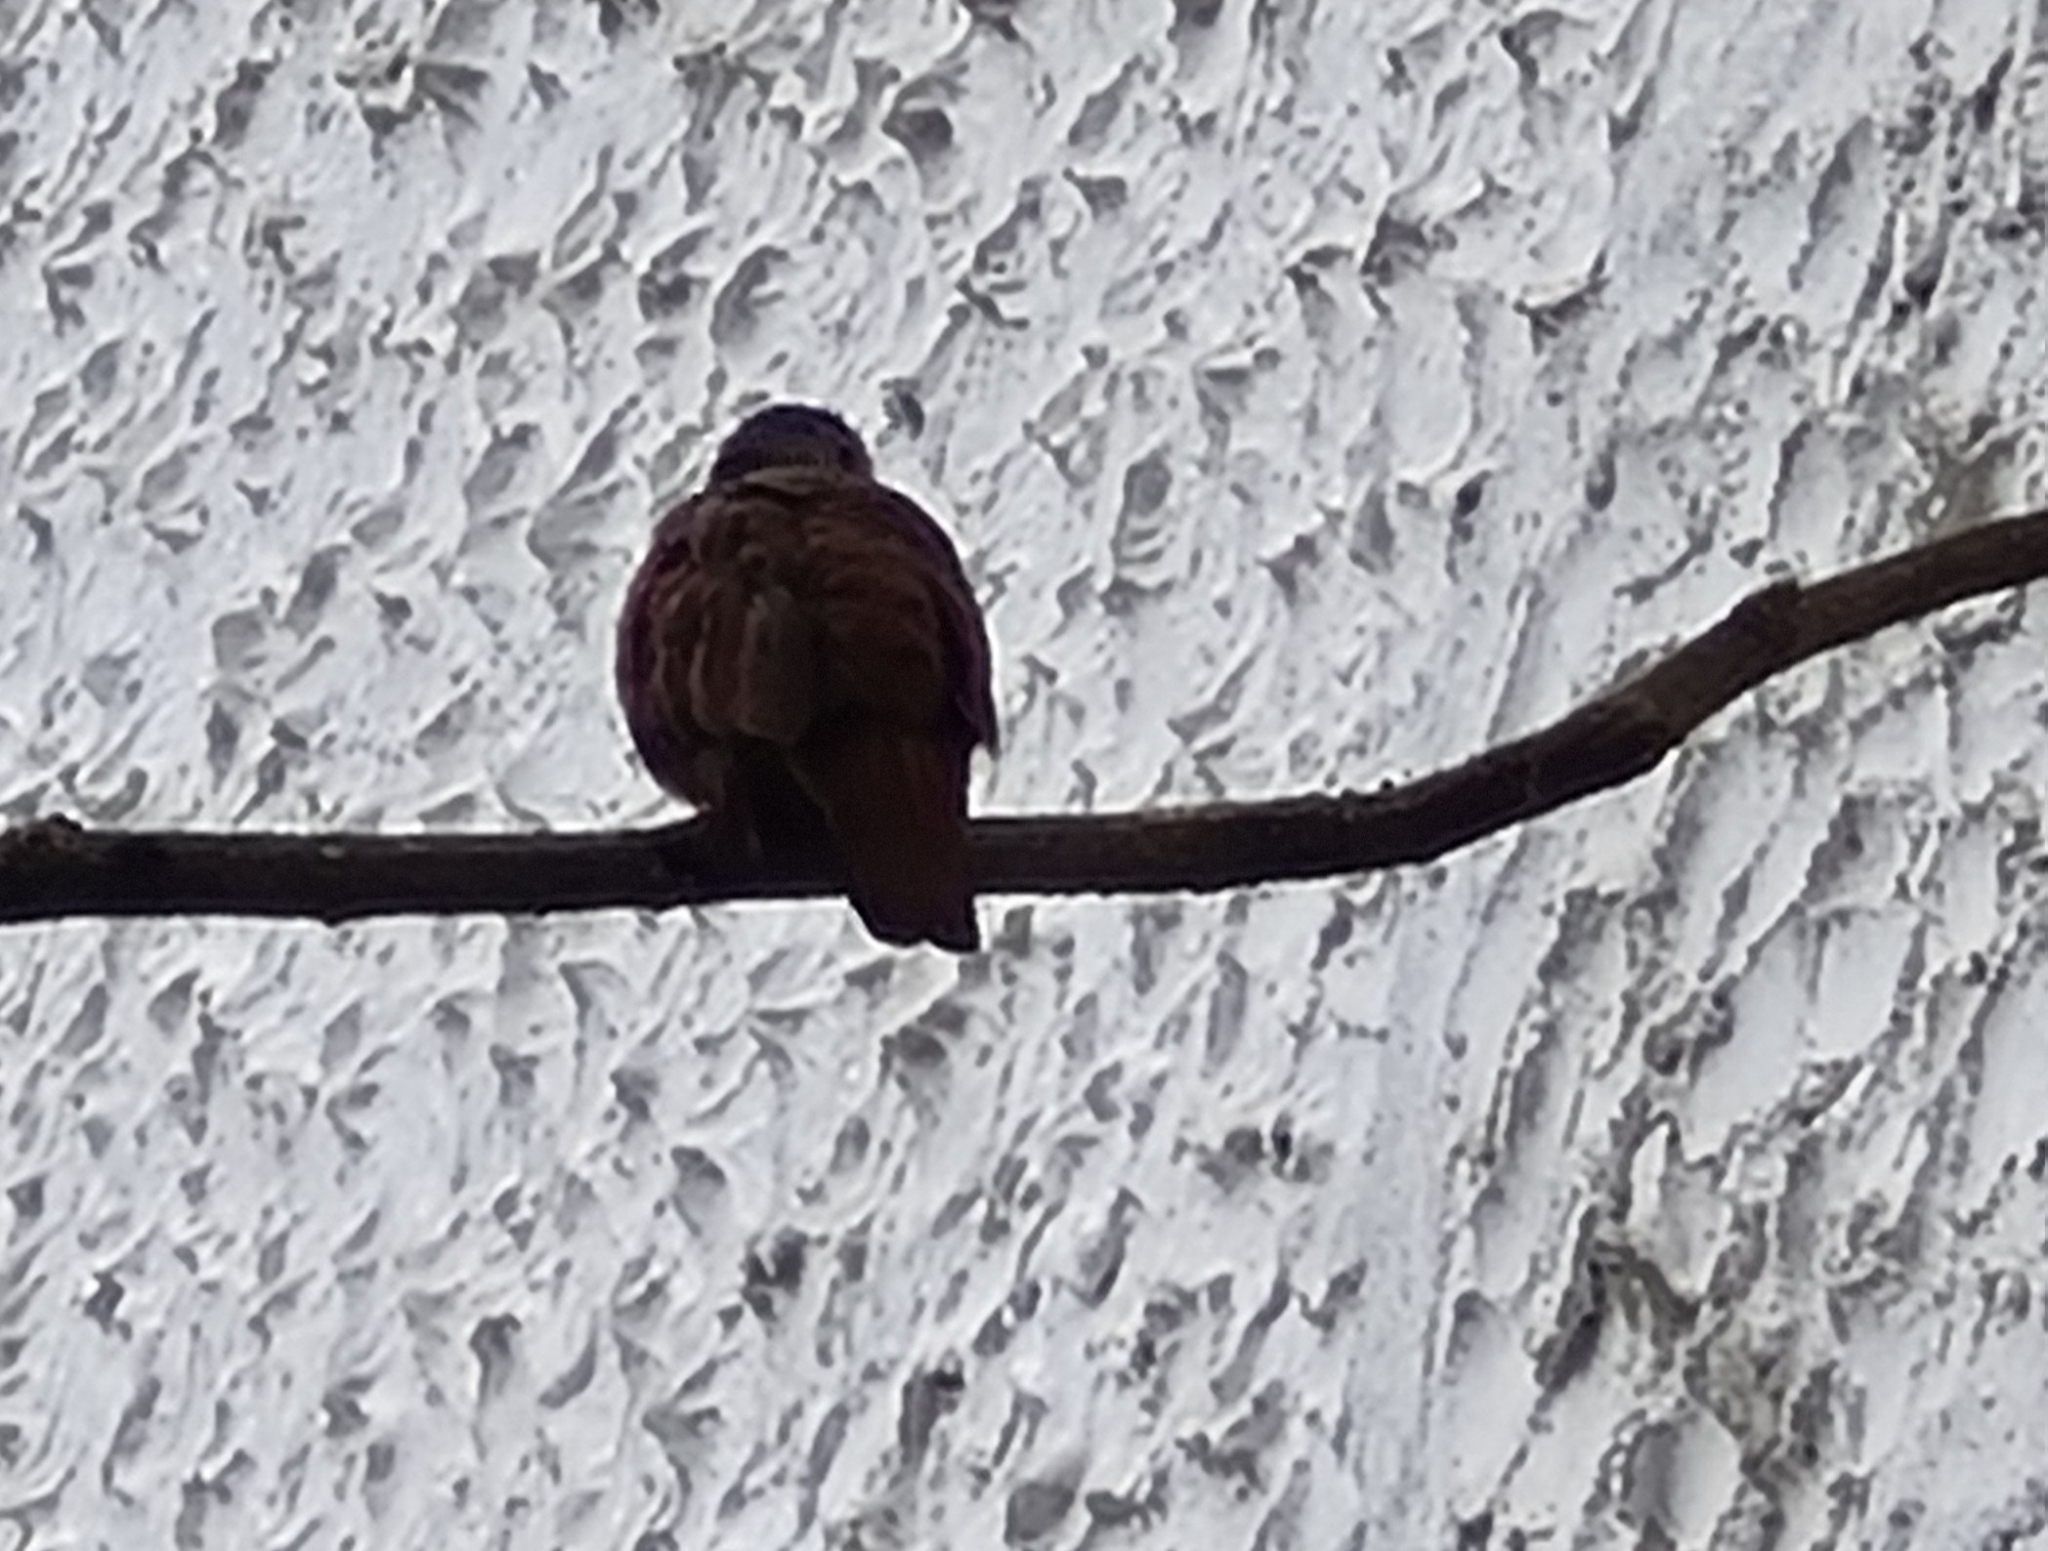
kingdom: Animalia
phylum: Chordata
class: Aves
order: Columbiformes
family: Columbidae
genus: Columbina
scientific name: Columbina talpacoti
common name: Ruddy ground dove
